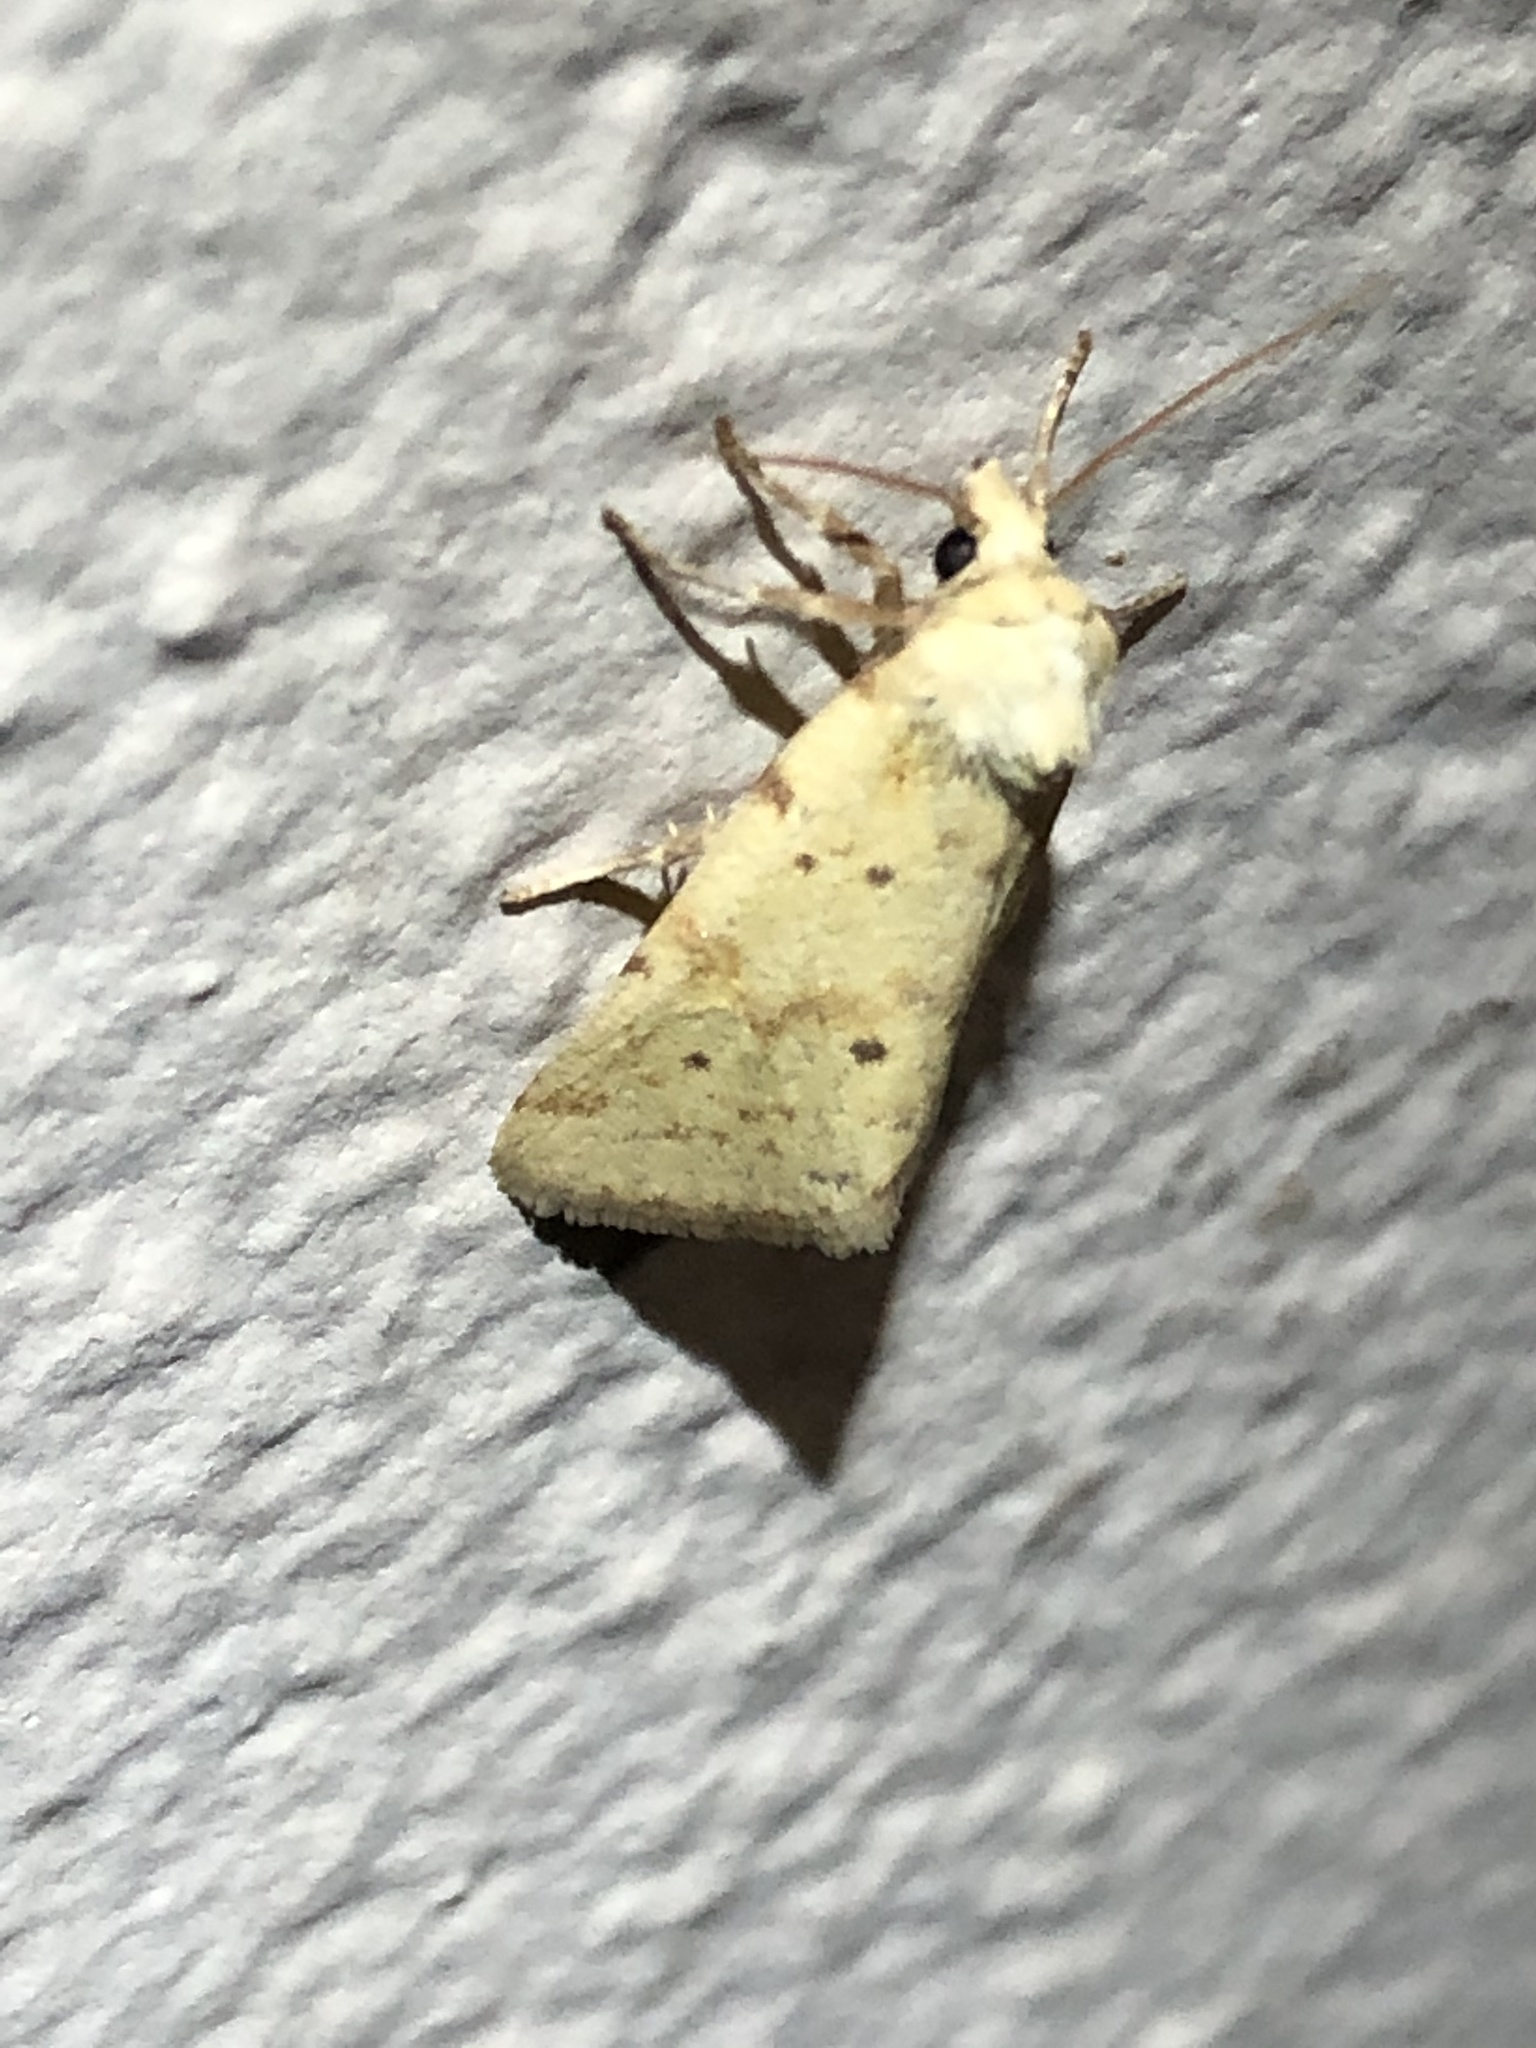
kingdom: Animalia
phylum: Arthropoda
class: Insecta
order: Lepidoptera
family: Noctuidae
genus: Azenia
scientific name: Azenia implora
